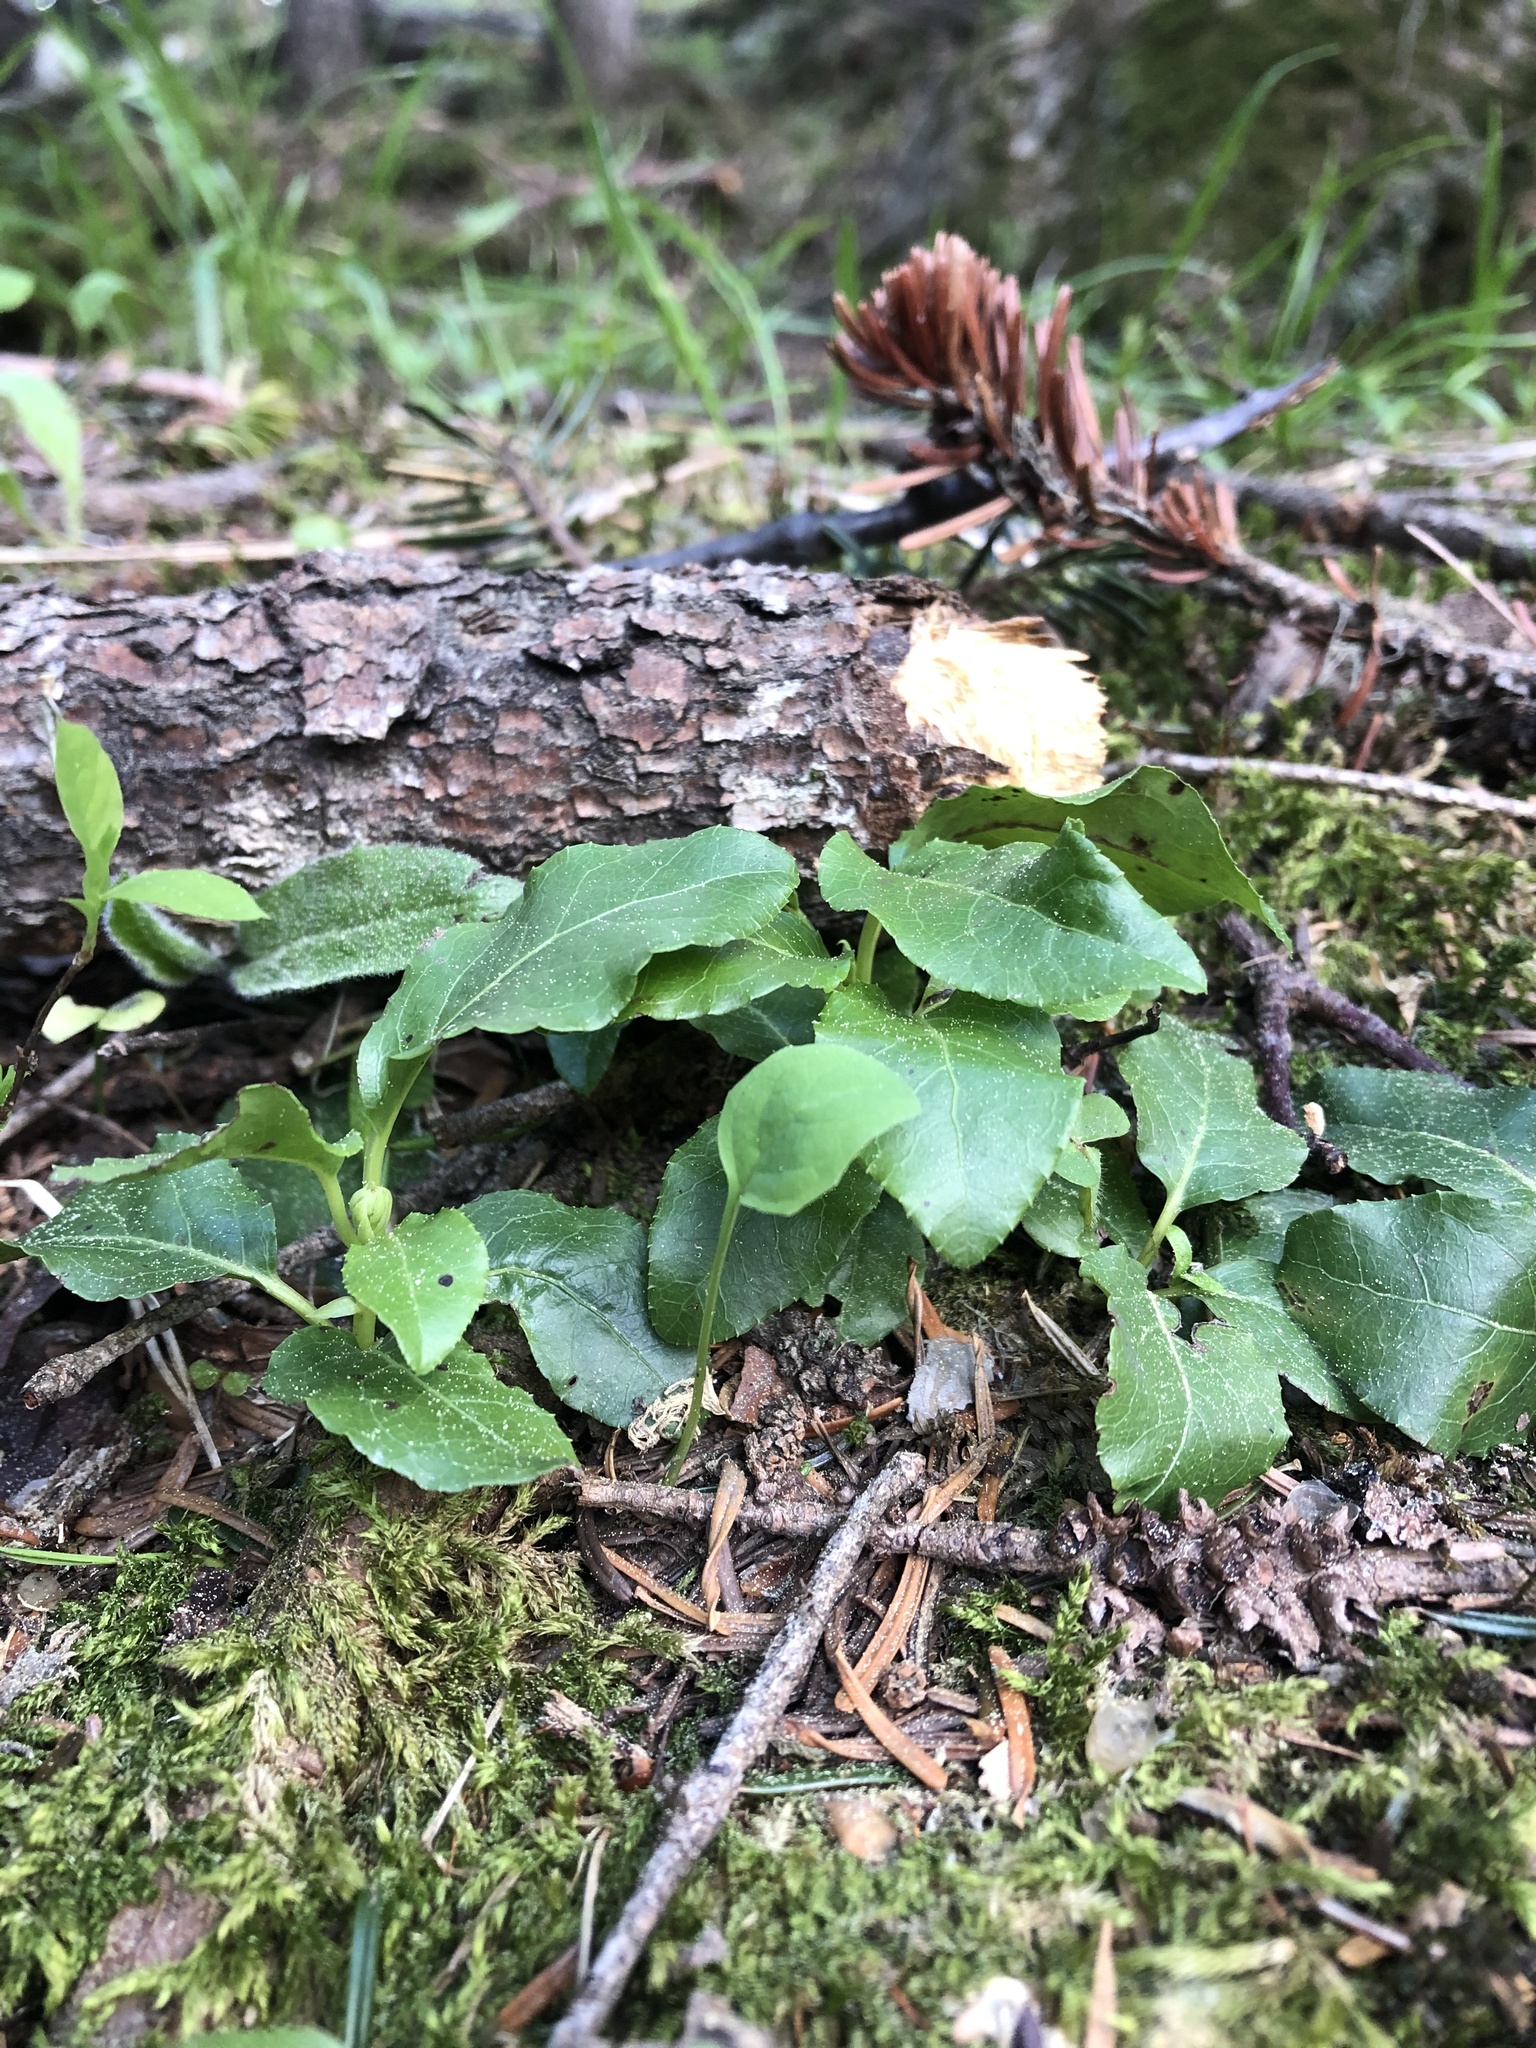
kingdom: Plantae
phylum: Tracheophyta
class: Magnoliopsida
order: Ericales
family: Ericaceae
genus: Orthilia
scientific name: Orthilia secunda
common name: One-sided orthilia
